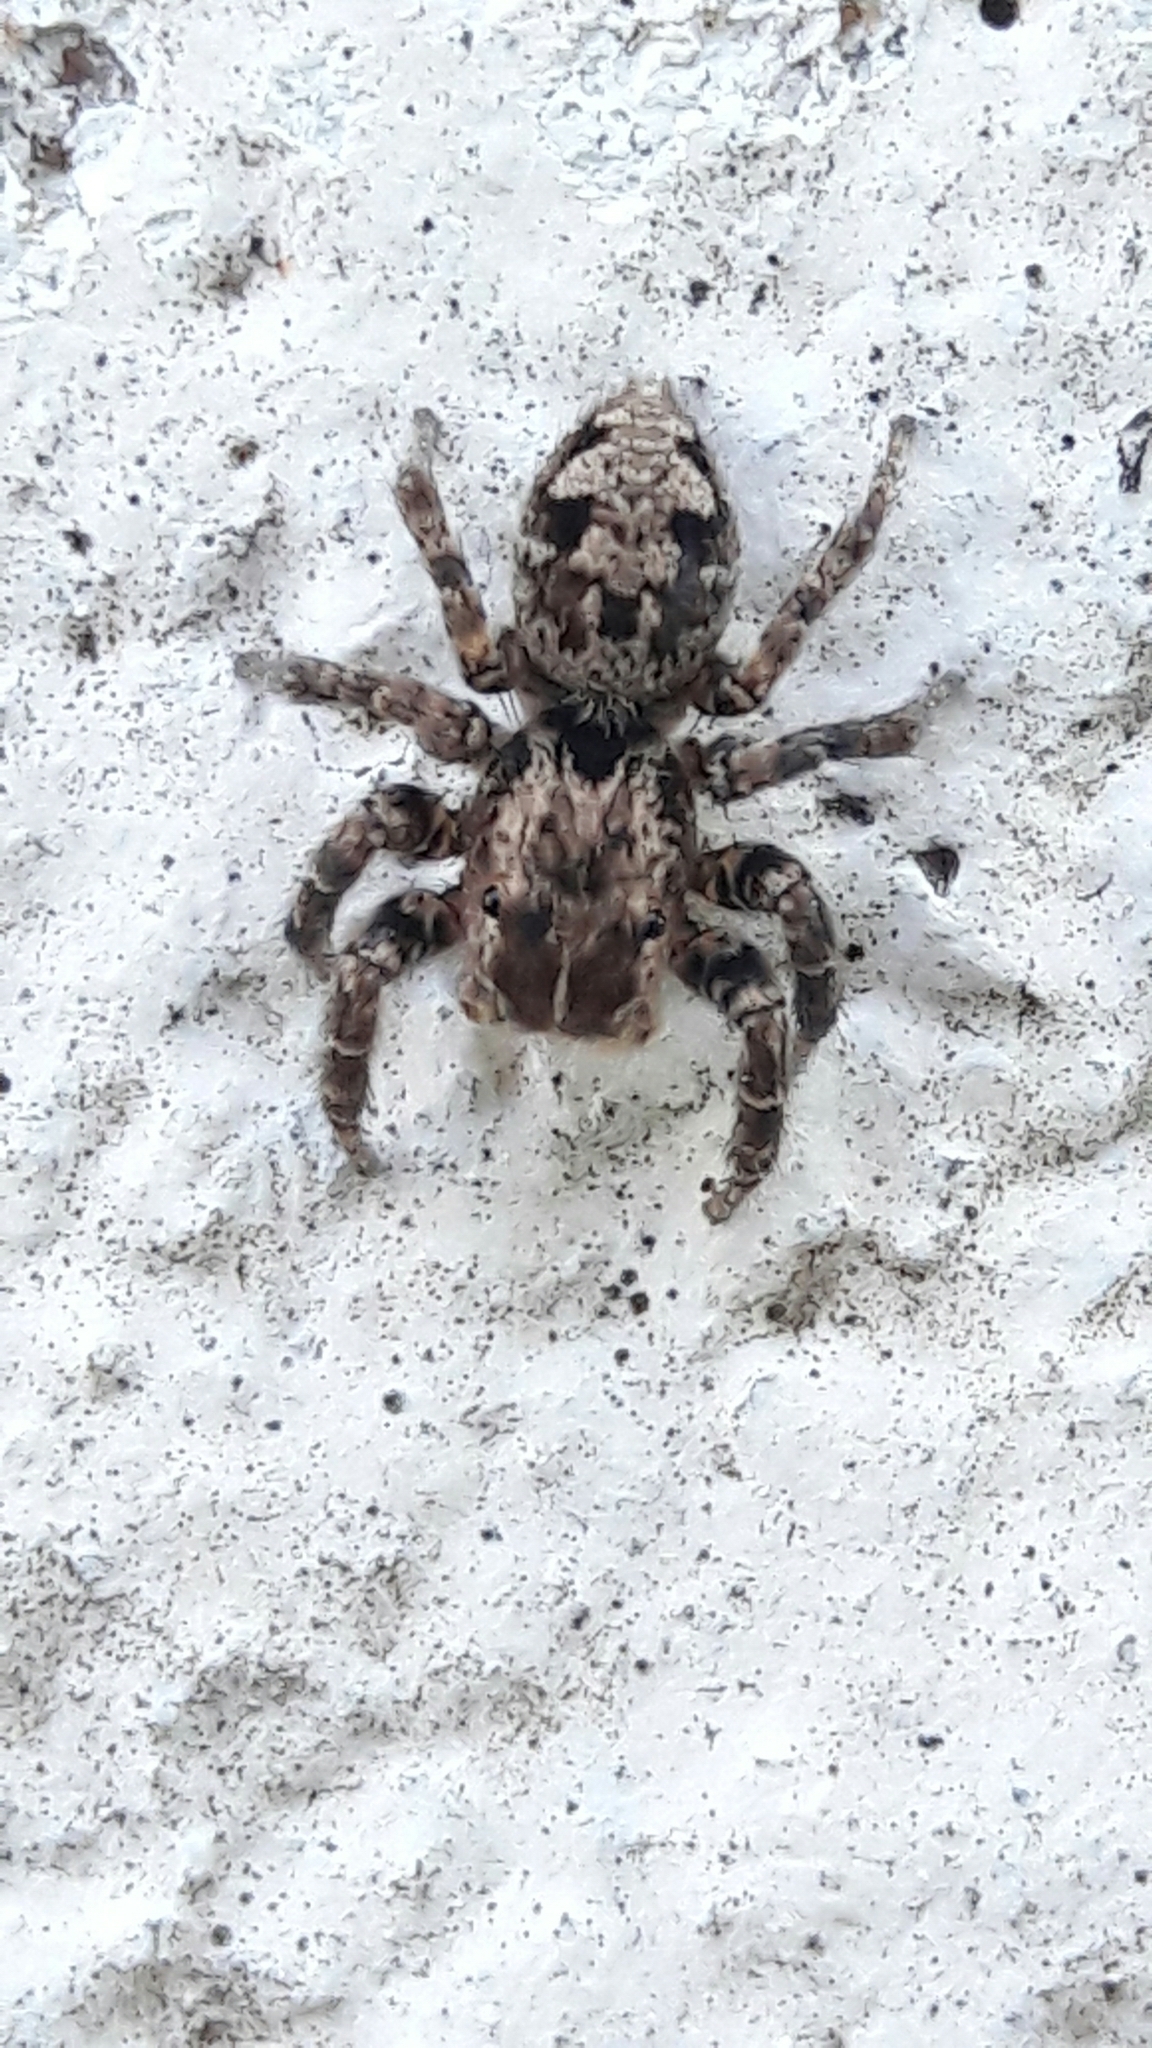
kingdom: Animalia
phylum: Arthropoda
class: Arachnida
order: Araneae
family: Salticidae
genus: Sumampattus
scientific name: Sumampattus quinqueradiatus
